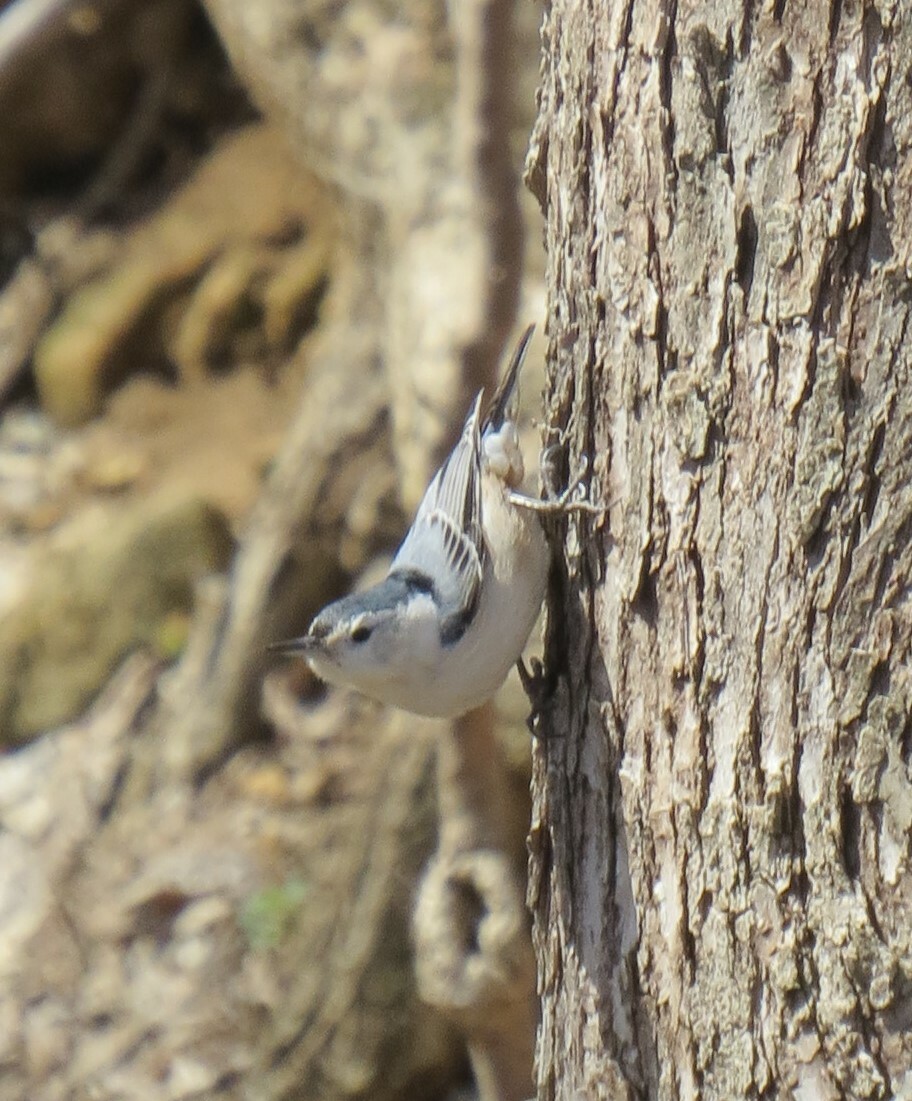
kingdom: Animalia
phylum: Chordata
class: Aves
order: Passeriformes
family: Sittidae
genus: Sitta
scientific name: Sitta carolinensis
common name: White-breasted nuthatch
